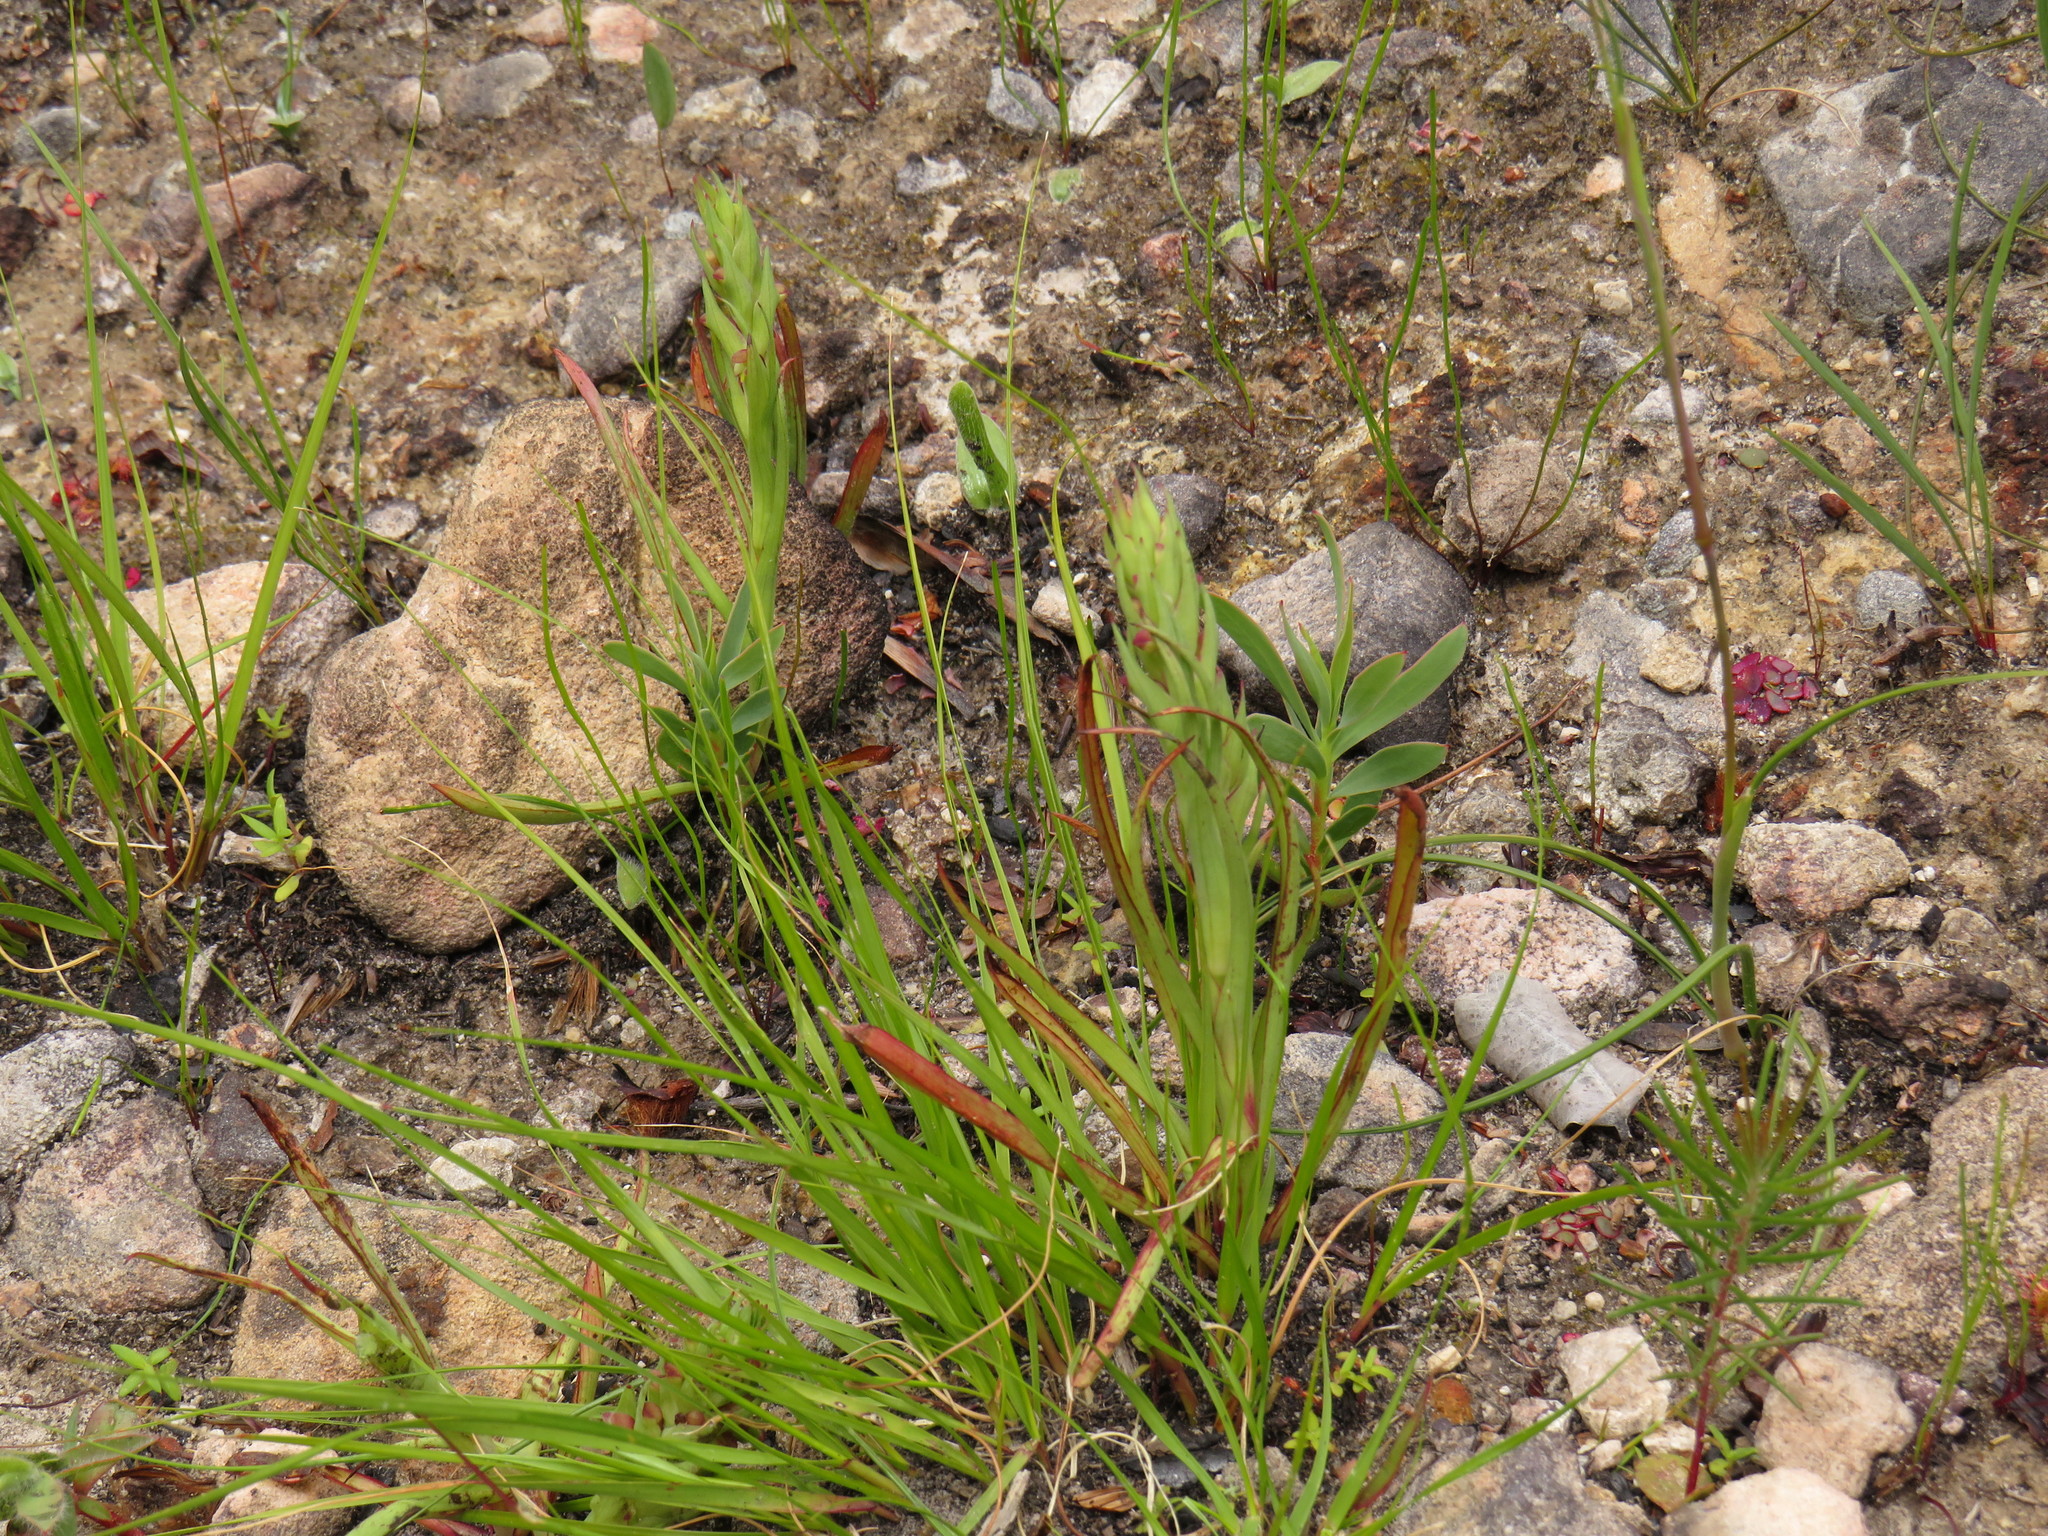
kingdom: Plantae
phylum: Tracheophyta
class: Liliopsida
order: Asparagales
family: Orchidaceae
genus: Disa
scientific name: Disa bracteata
